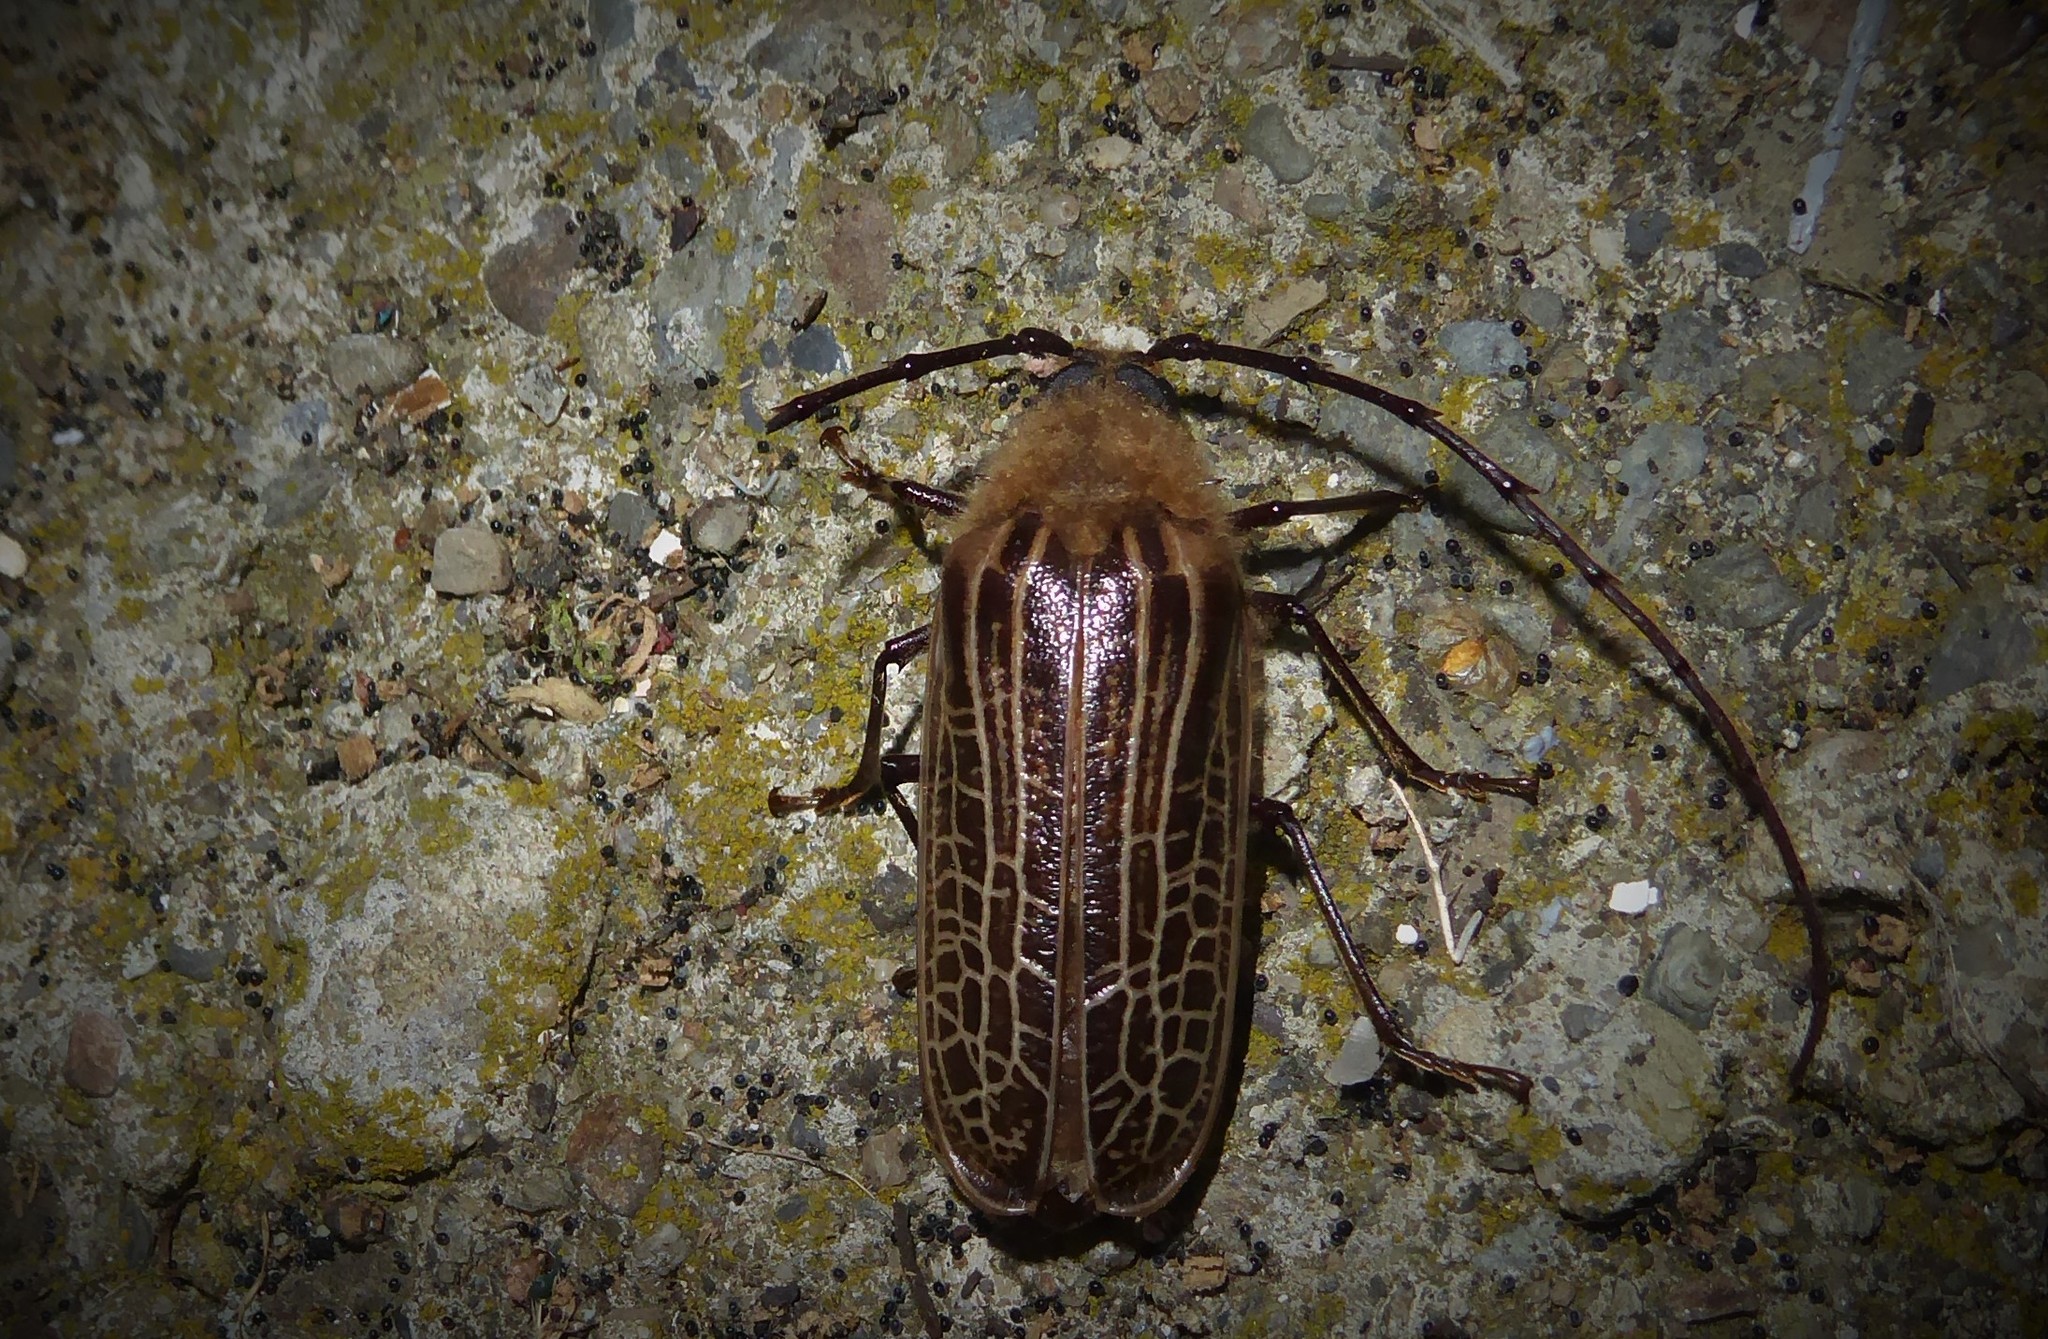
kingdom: Animalia
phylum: Arthropoda
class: Insecta
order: Coleoptera
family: Cerambycidae
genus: Prionoplus
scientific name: Prionoplus reticularis
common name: Huhu beetle
